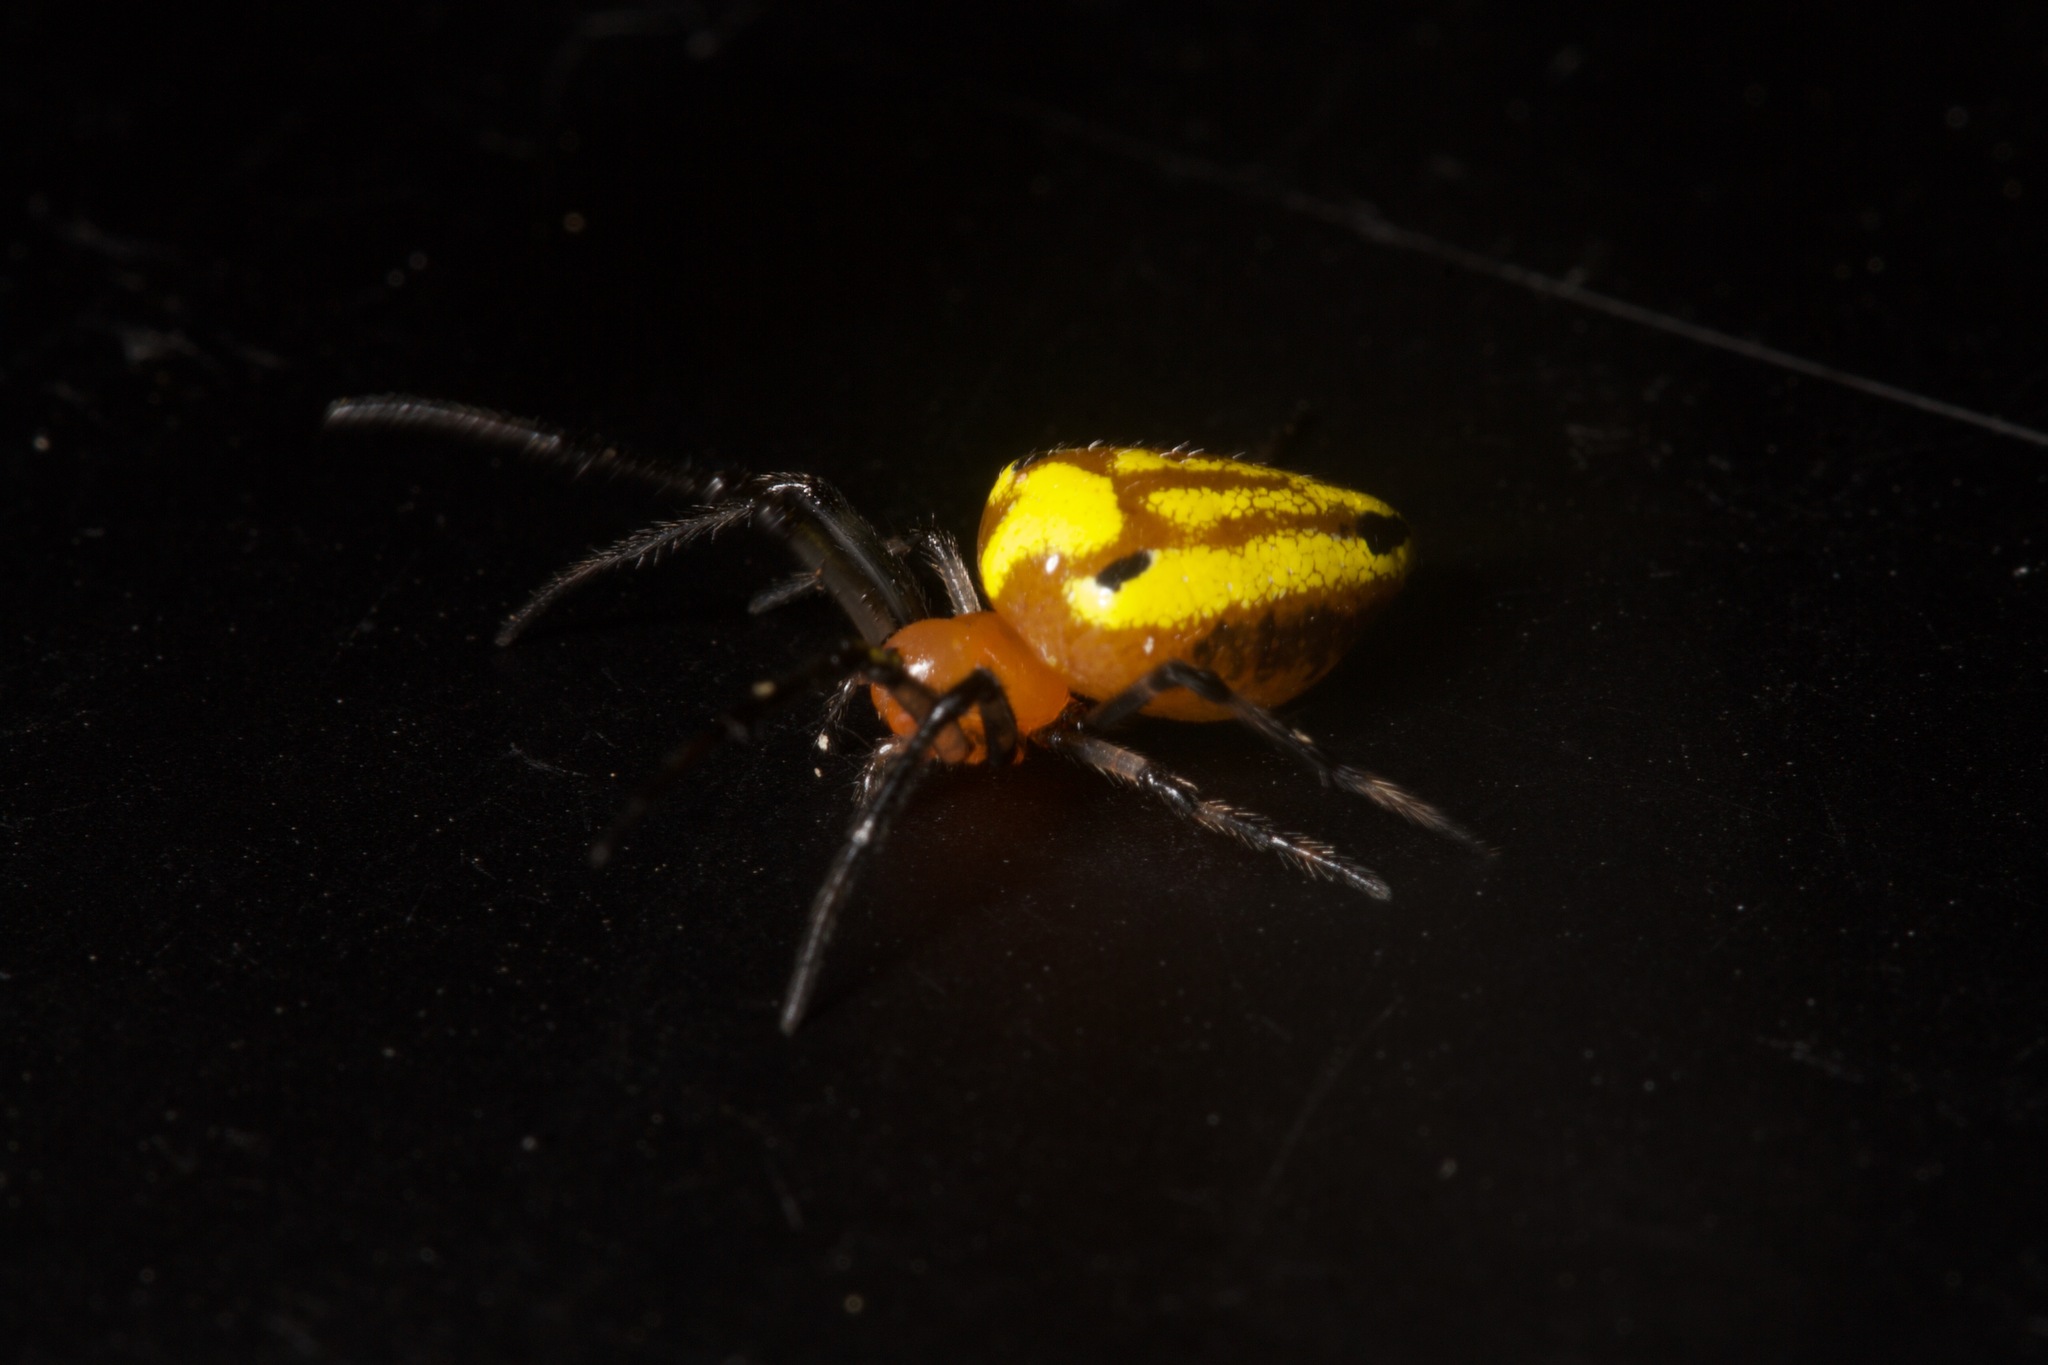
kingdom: Animalia
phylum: Arthropoda
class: Arachnida
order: Araneae
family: Araneidae
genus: Alpaida
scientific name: Alpaida tuonabo
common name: Orb weavers
